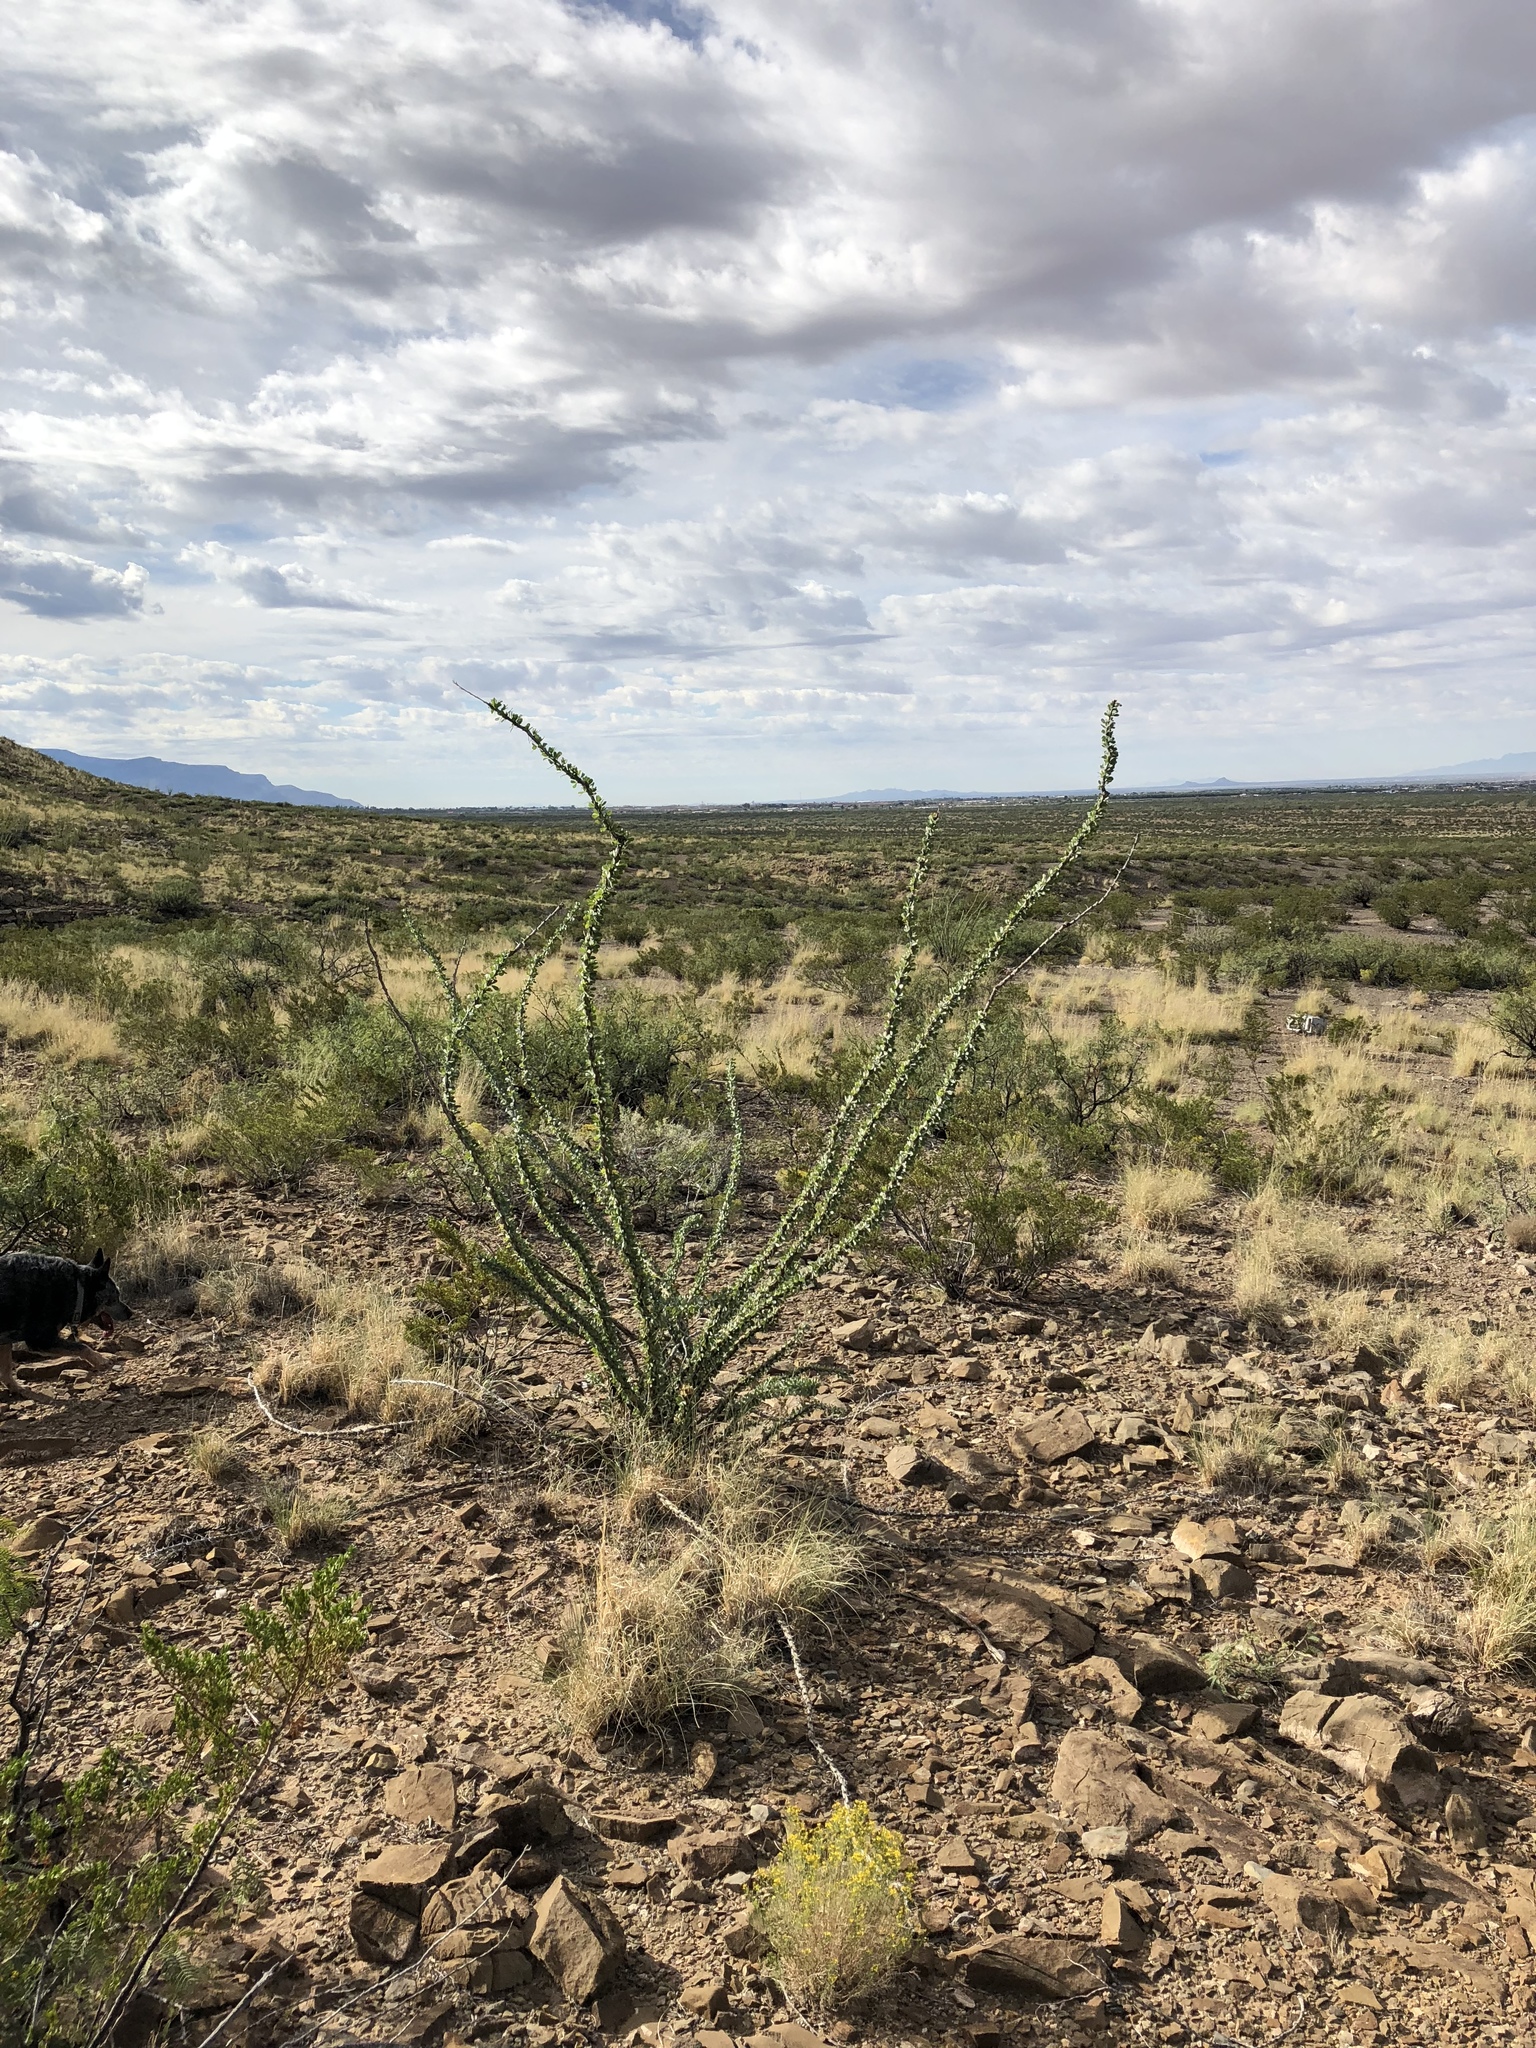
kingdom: Plantae
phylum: Tracheophyta
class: Magnoliopsida
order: Ericales
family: Fouquieriaceae
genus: Fouquieria
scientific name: Fouquieria splendens
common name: Vine-cactus
